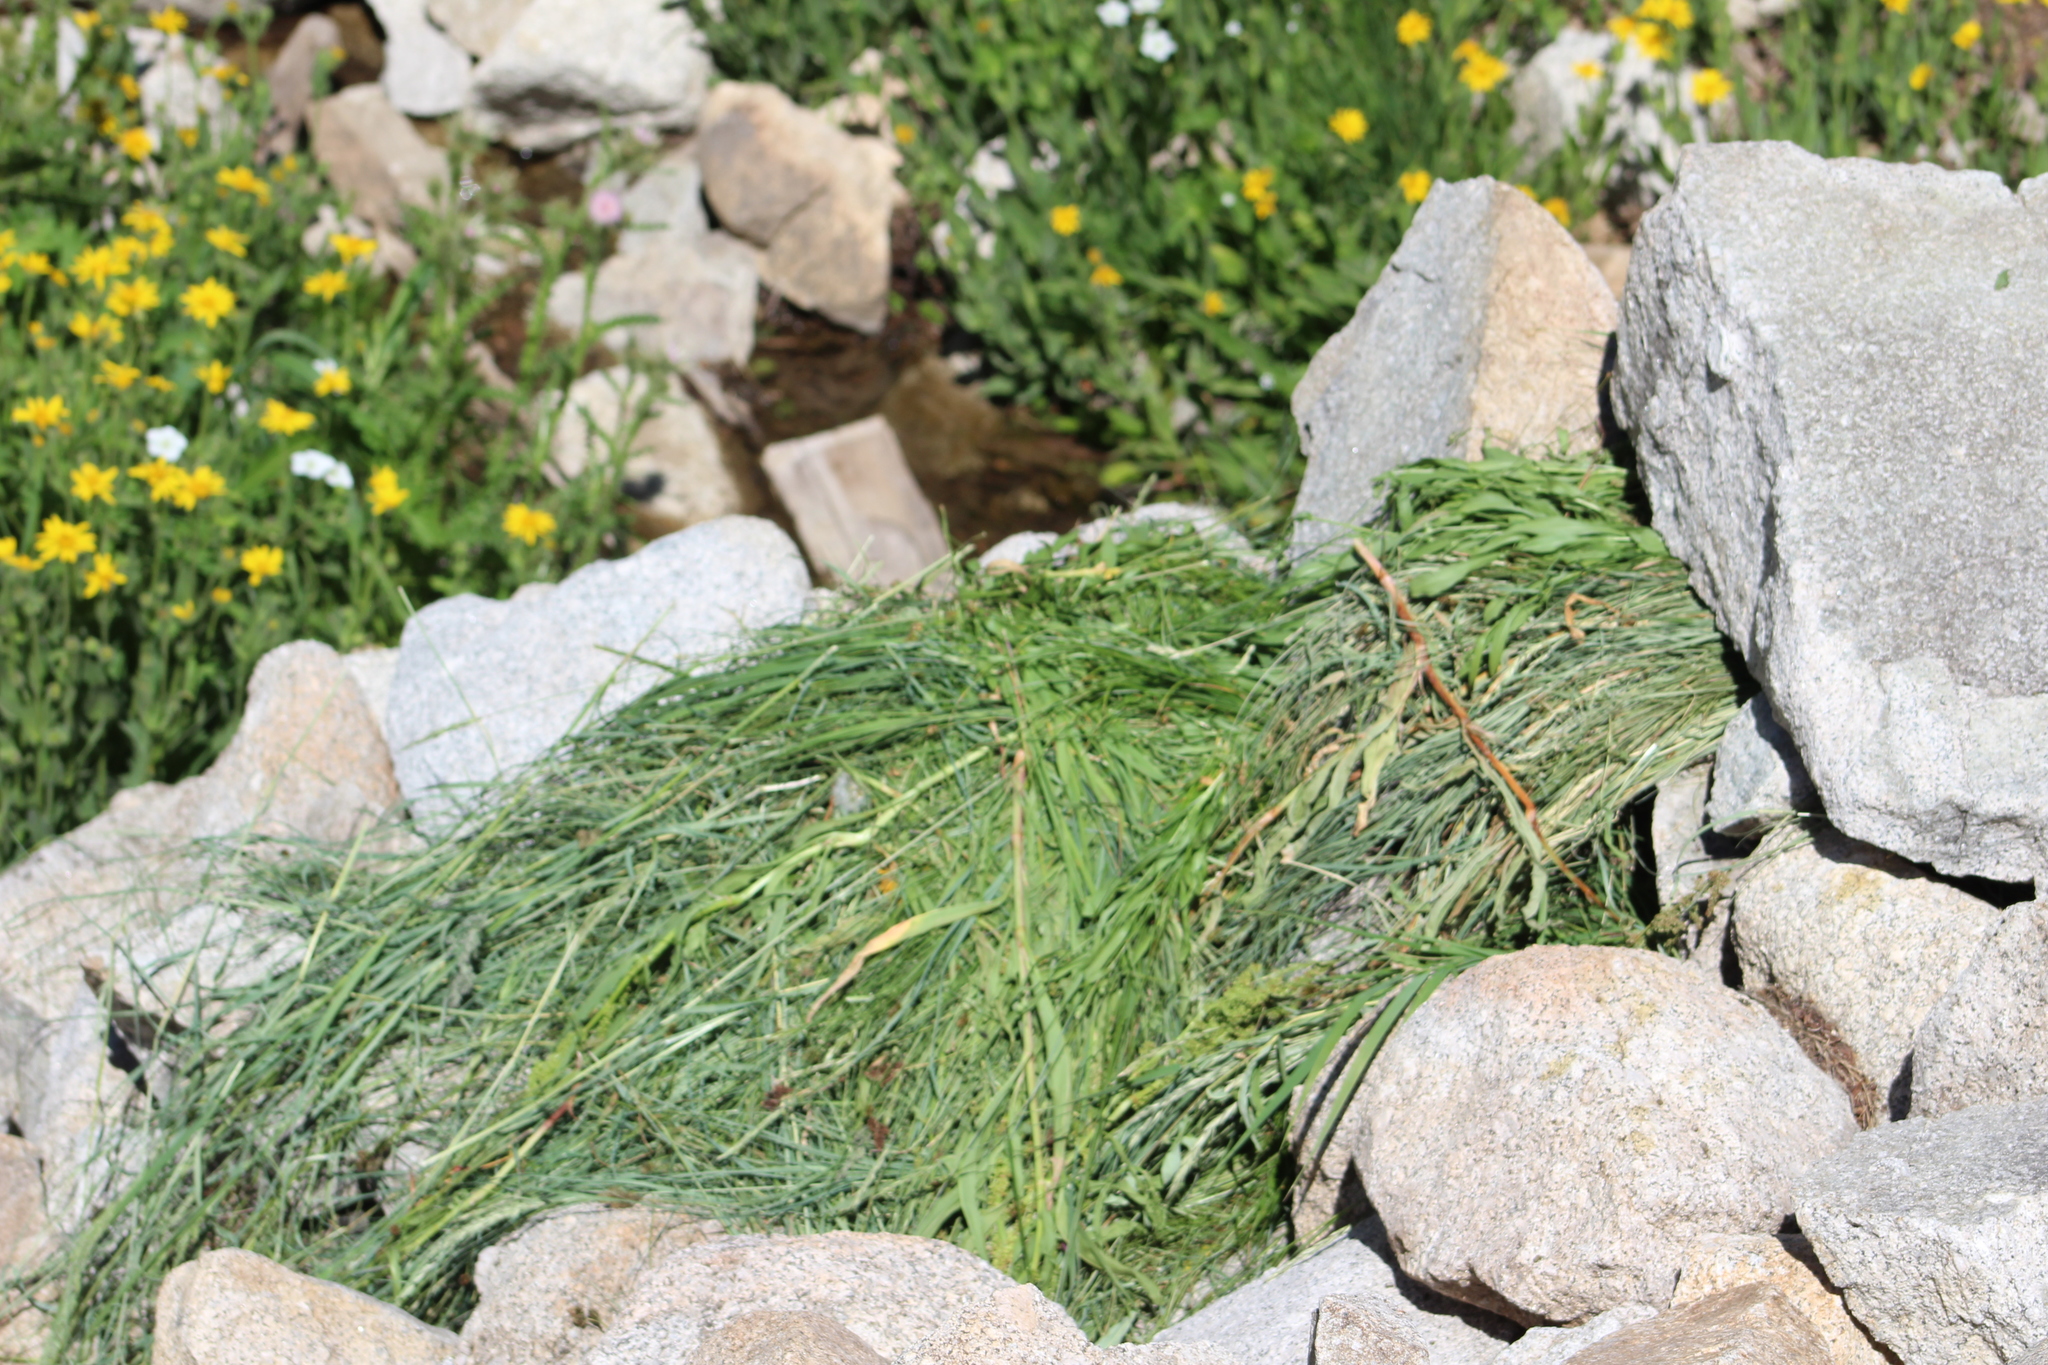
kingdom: Animalia
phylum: Chordata
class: Mammalia
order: Lagomorpha
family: Ochotonidae
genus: Ochotona
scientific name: Ochotona princeps
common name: American pika
